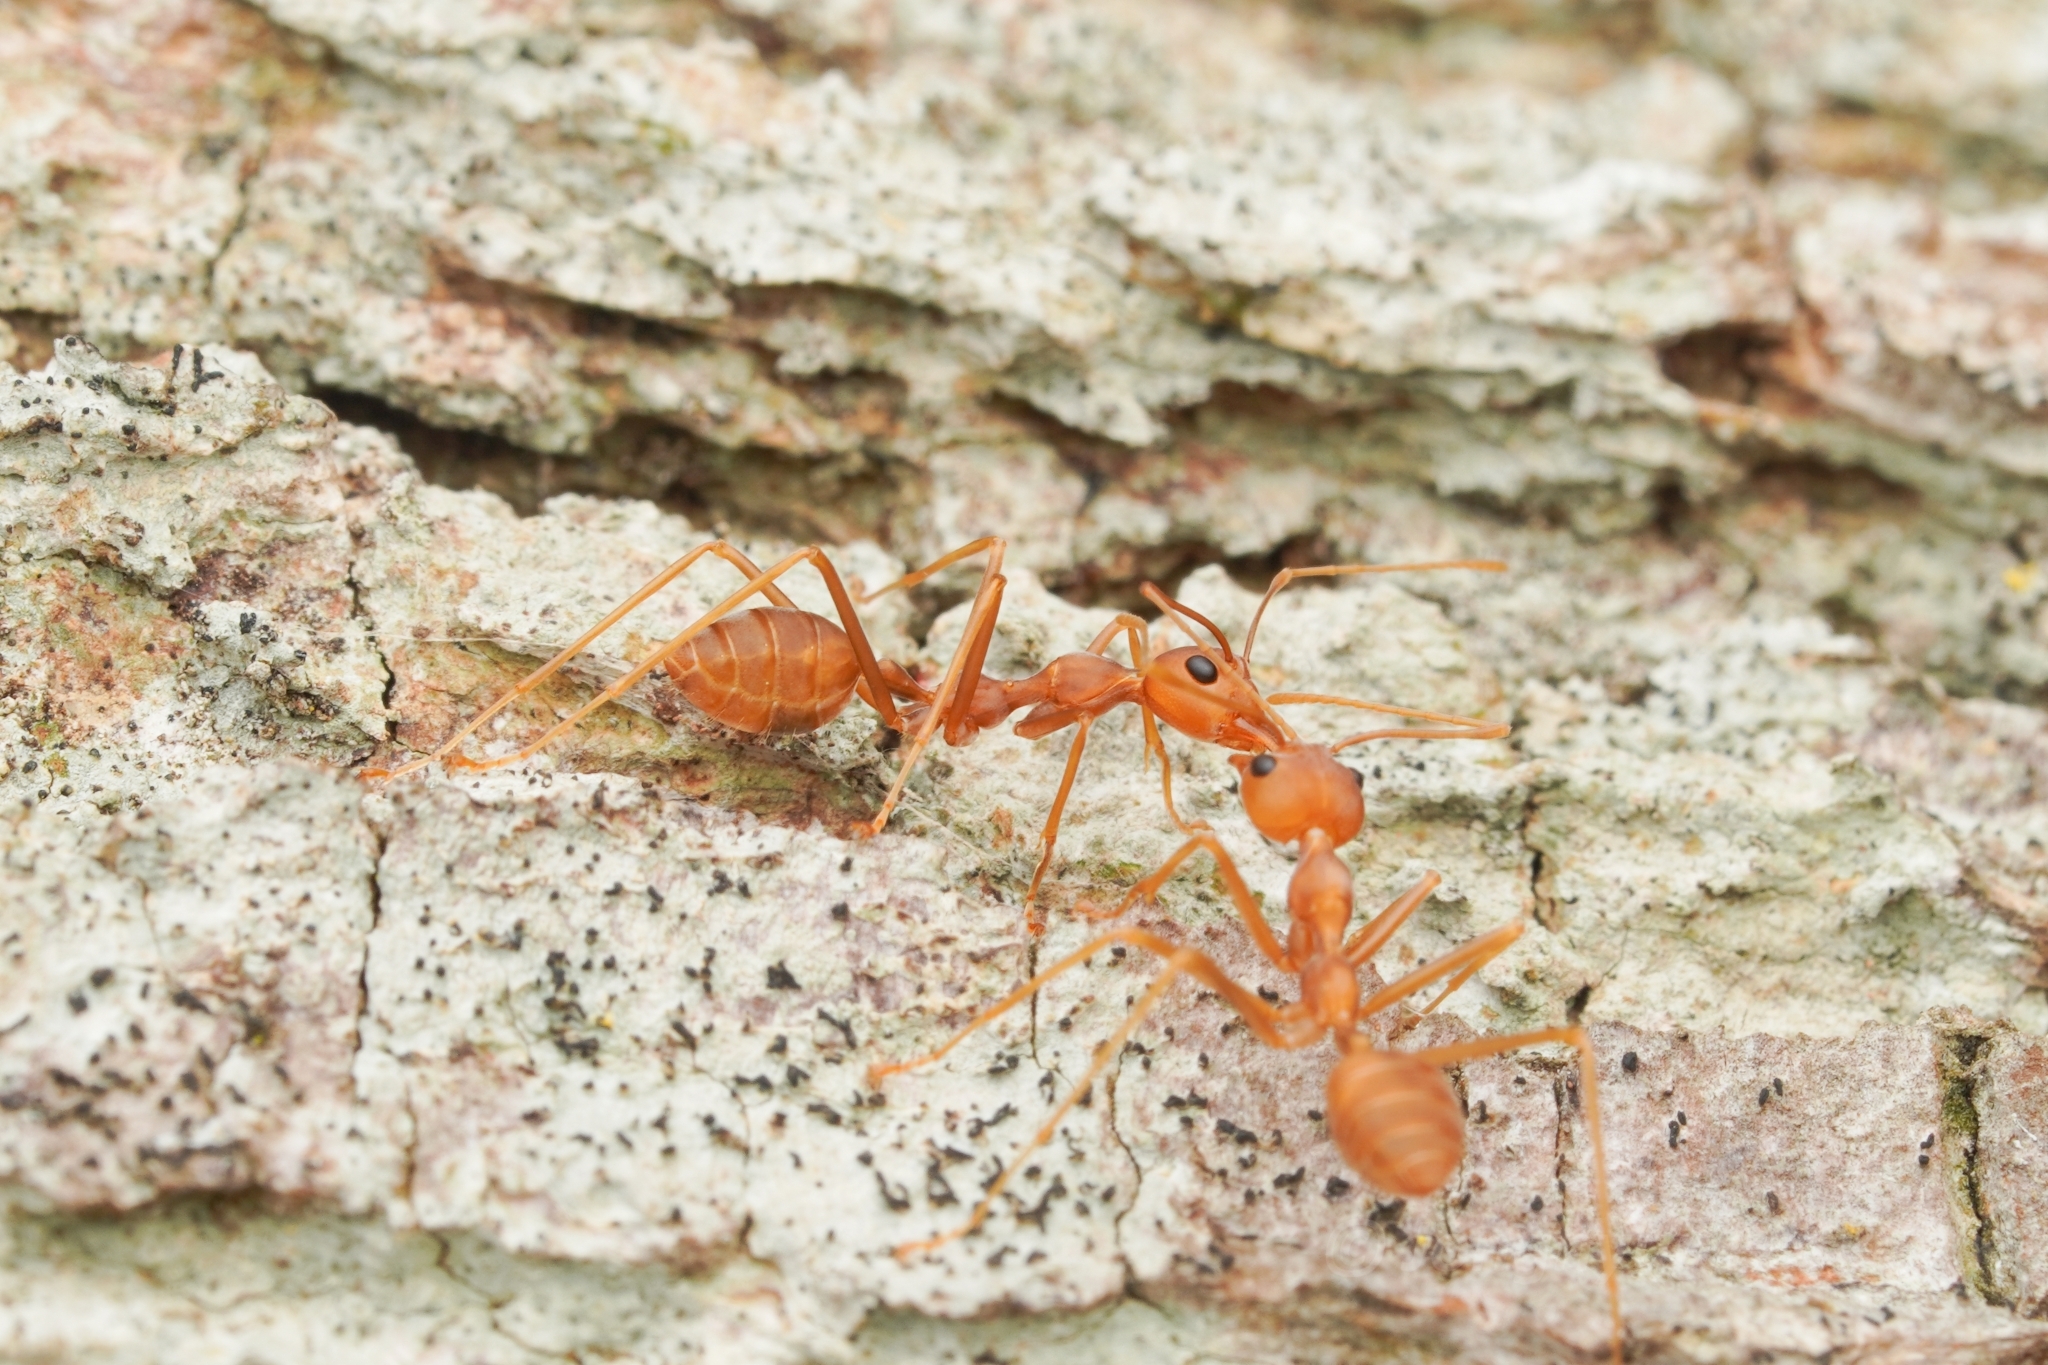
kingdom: Animalia
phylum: Arthropoda
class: Insecta
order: Hymenoptera
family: Formicidae
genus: Oecophylla
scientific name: Oecophylla smaragdina
